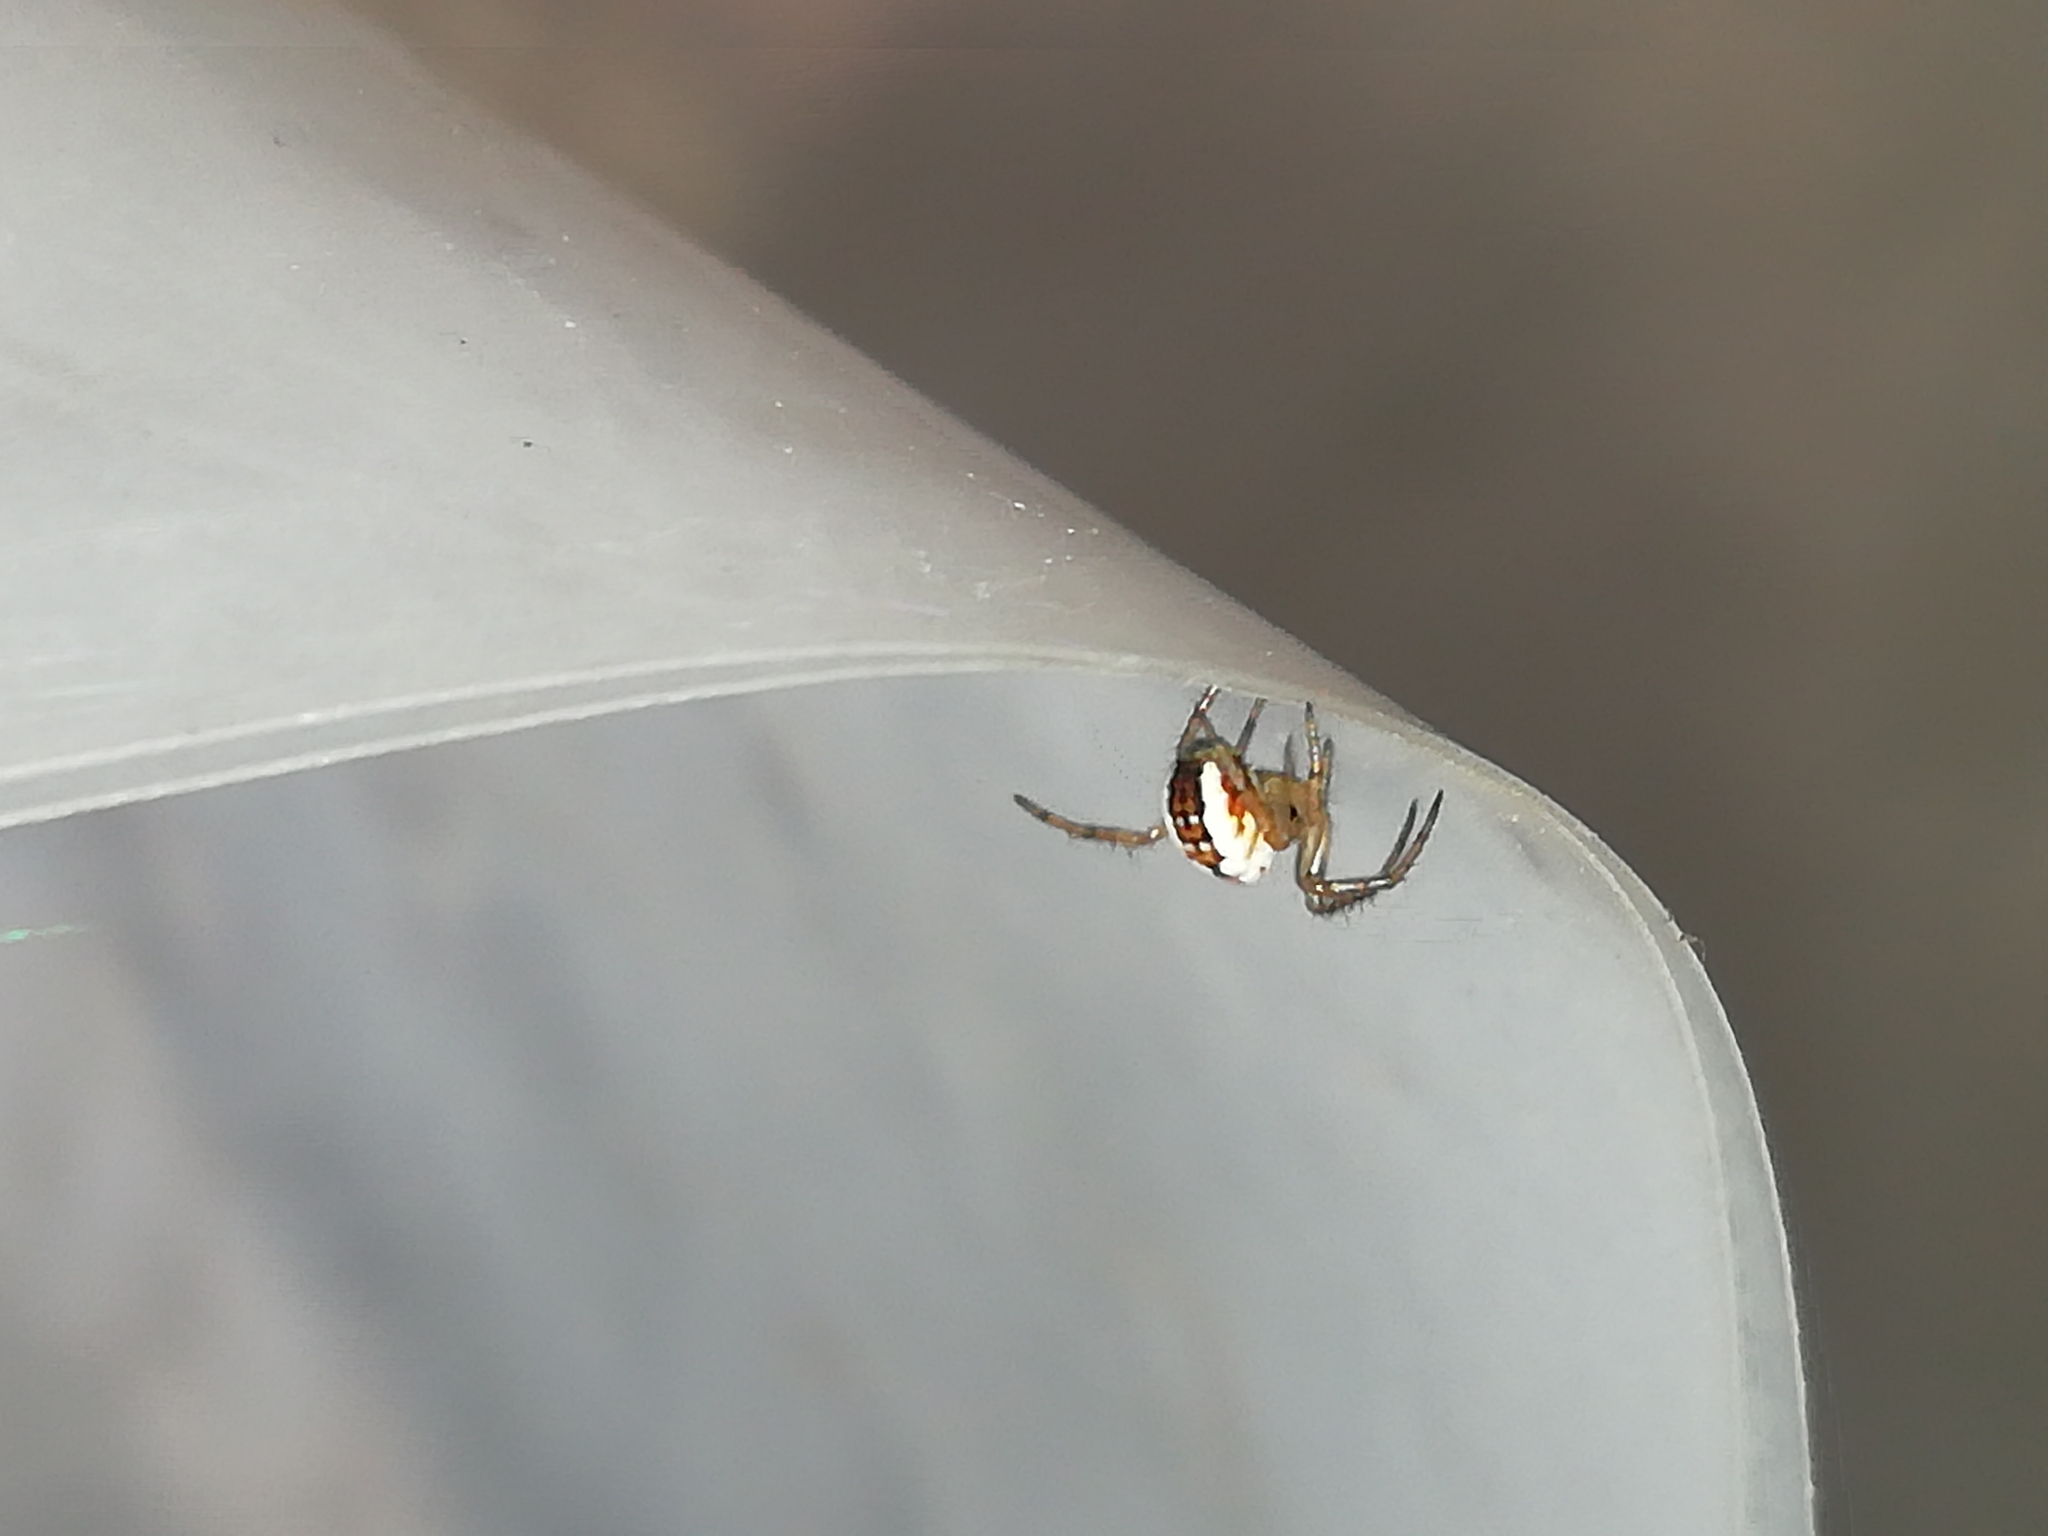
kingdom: Animalia
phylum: Arthropoda
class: Arachnida
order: Araneae
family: Araneidae
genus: Mangora
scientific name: Mangora acalypha
